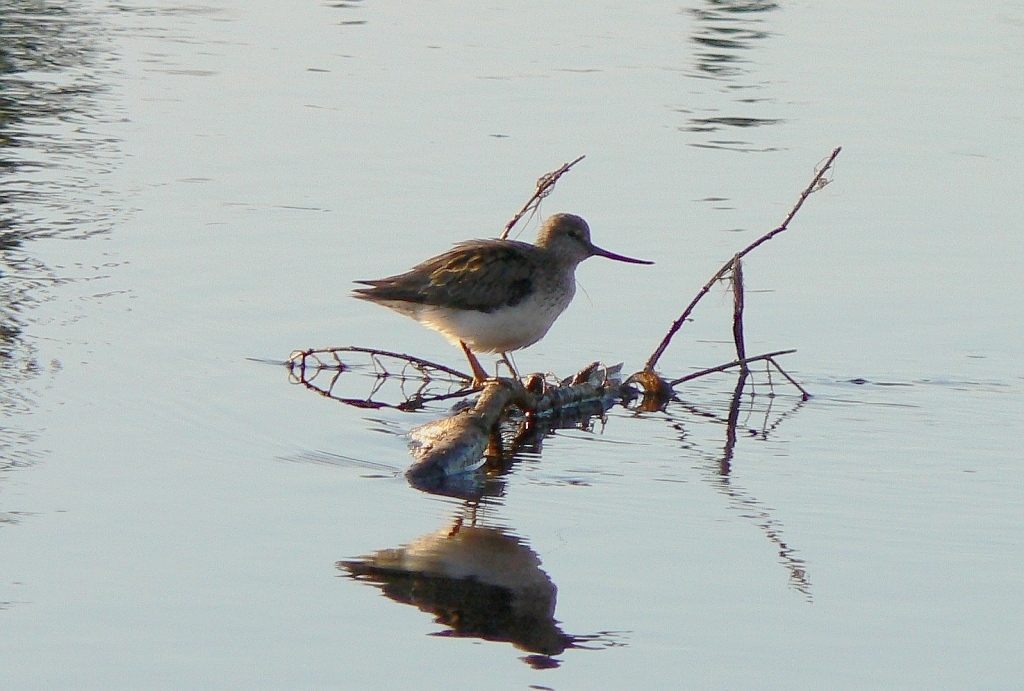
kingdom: Animalia
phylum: Chordata
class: Aves
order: Charadriiformes
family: Scolopacidae
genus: Xenus
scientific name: Xenus cinereus
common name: Terek sandpiper
